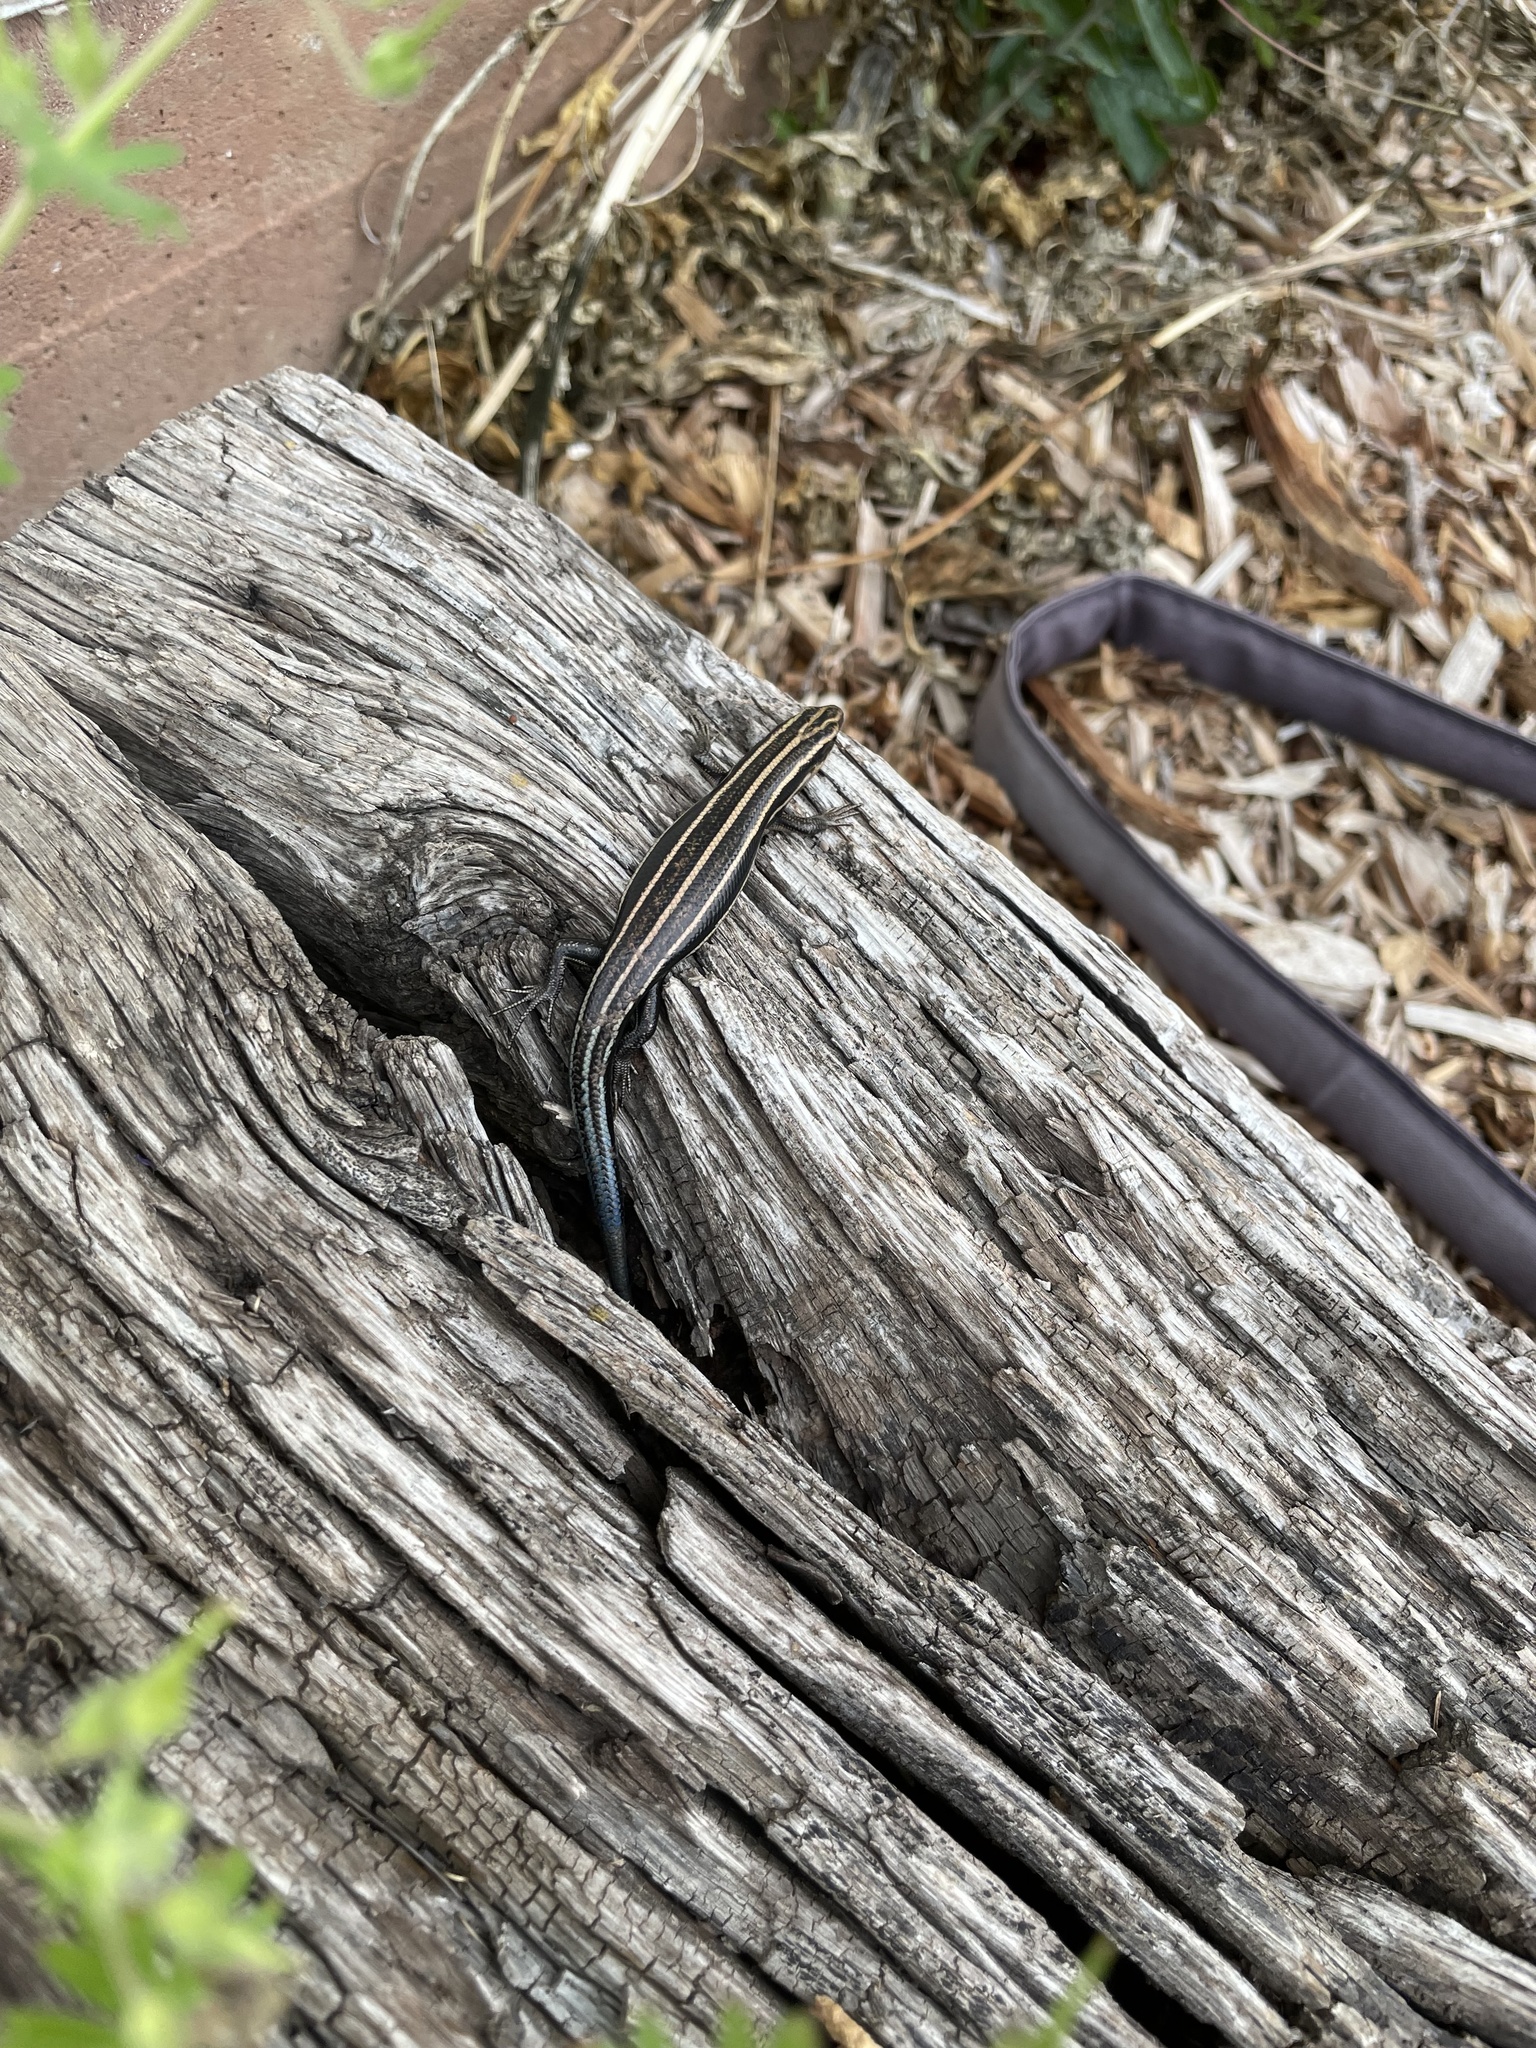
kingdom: Animalia
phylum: Chordata
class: Squamata
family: Scincidae
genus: Plestiodon
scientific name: Plestiodon fasciatus
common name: Five-lined skink
